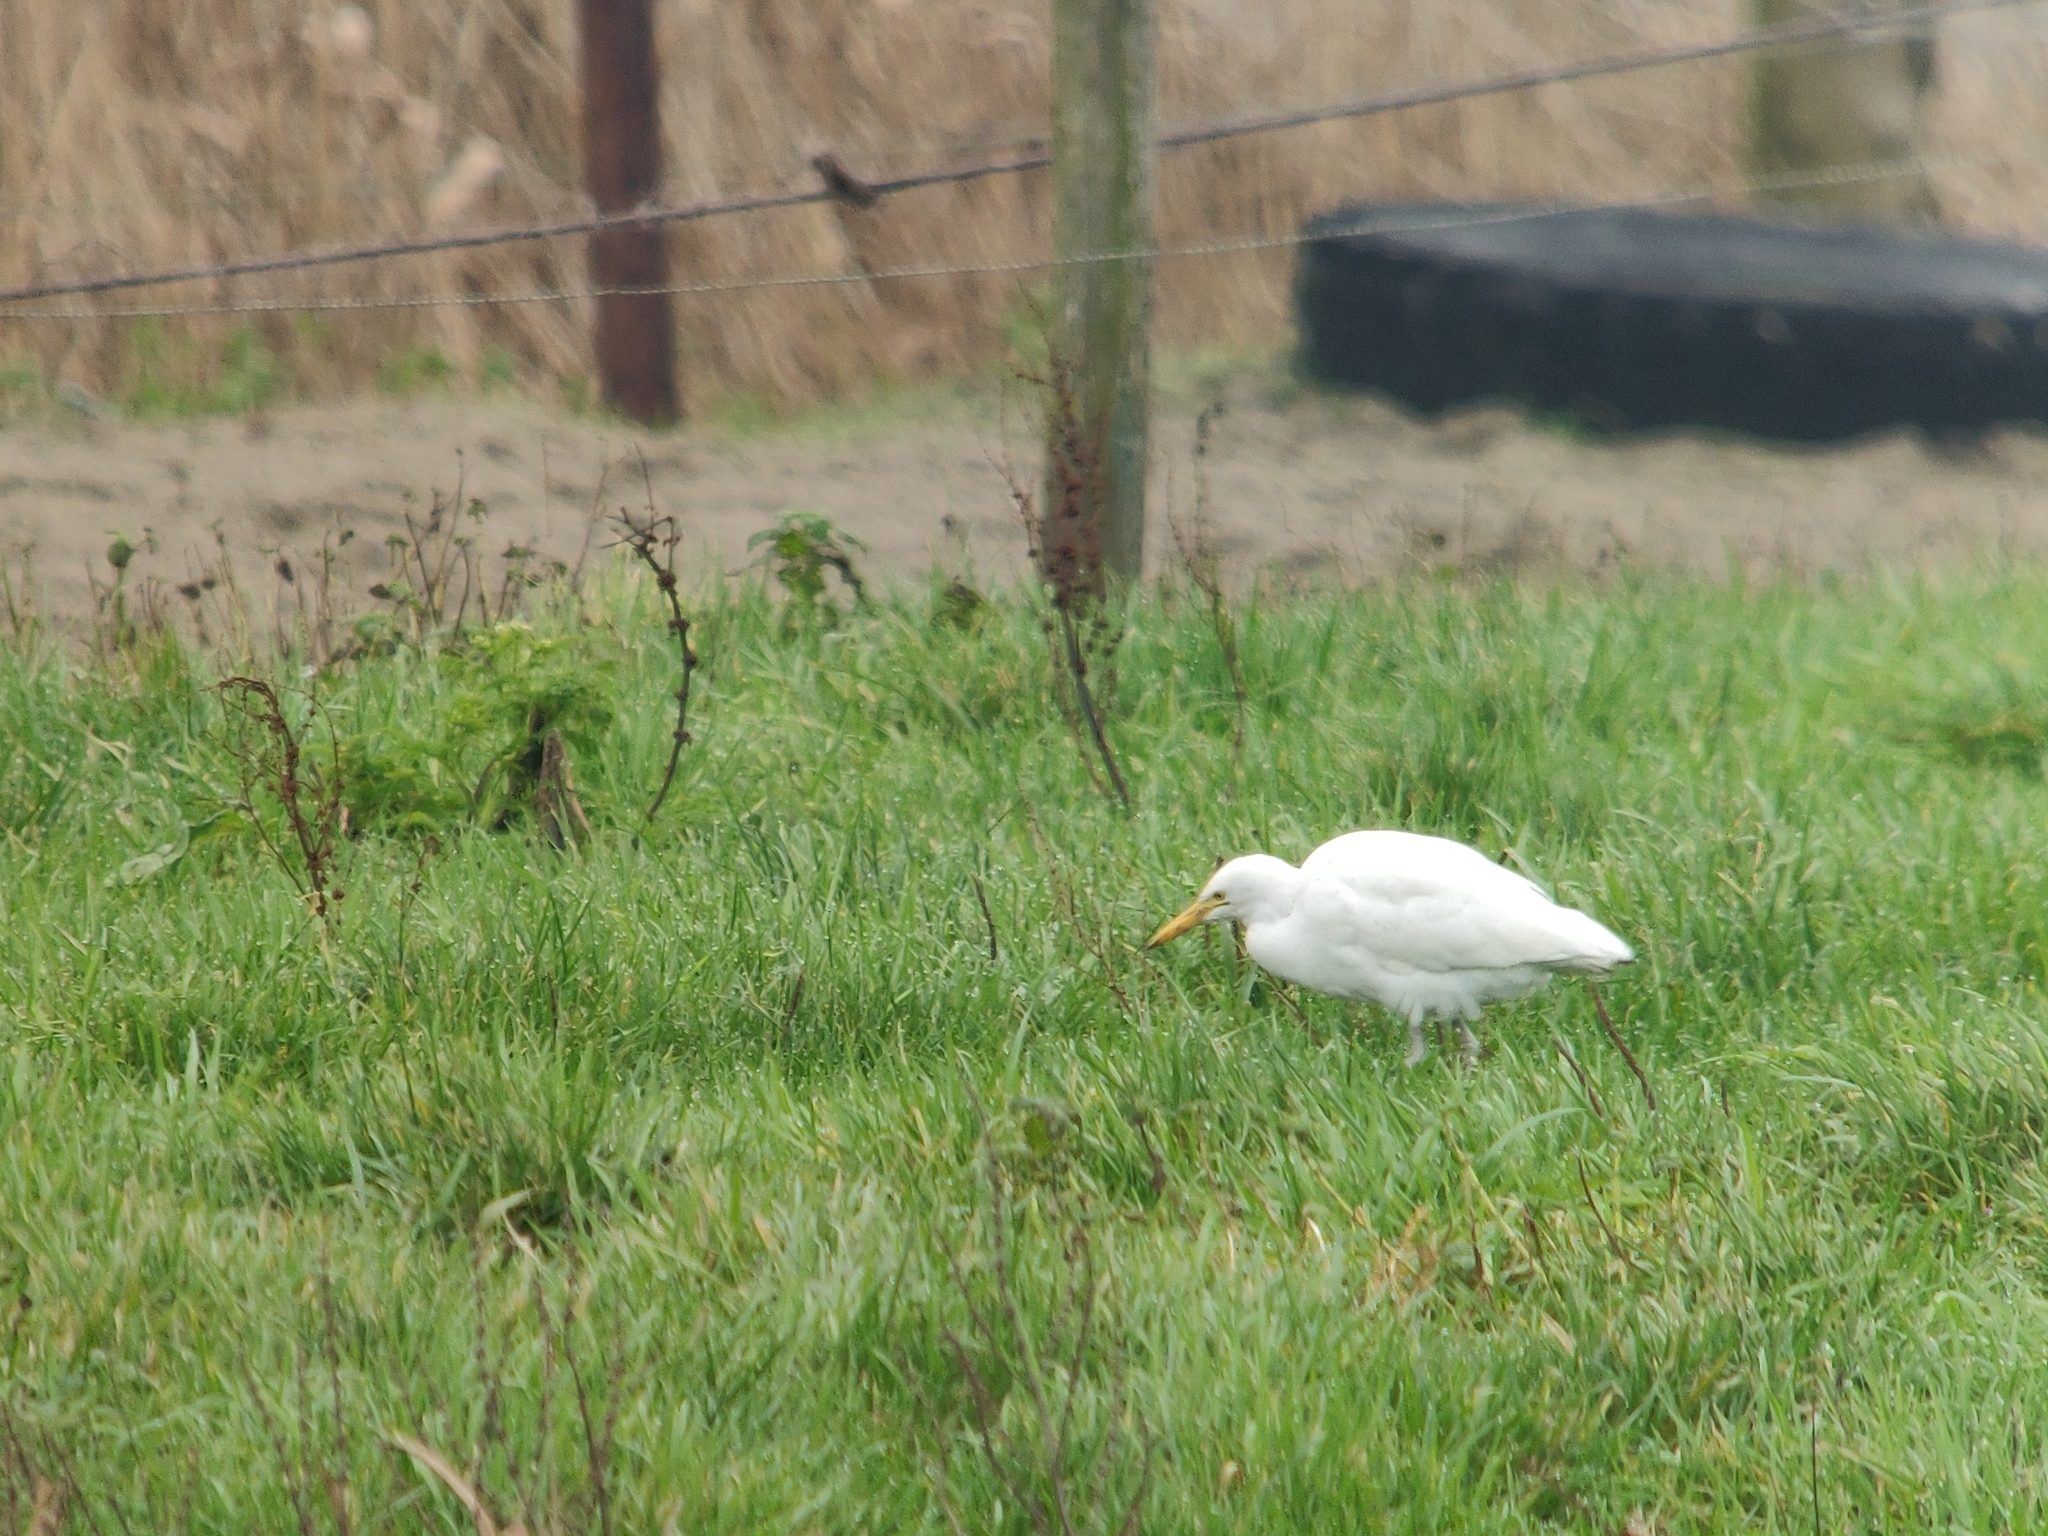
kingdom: Animalia
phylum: Chordata
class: Aves
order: Pelecaniformes
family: Ardeidae
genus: Bubulcus
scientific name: Bubulcus ibis
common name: Cattle egret
